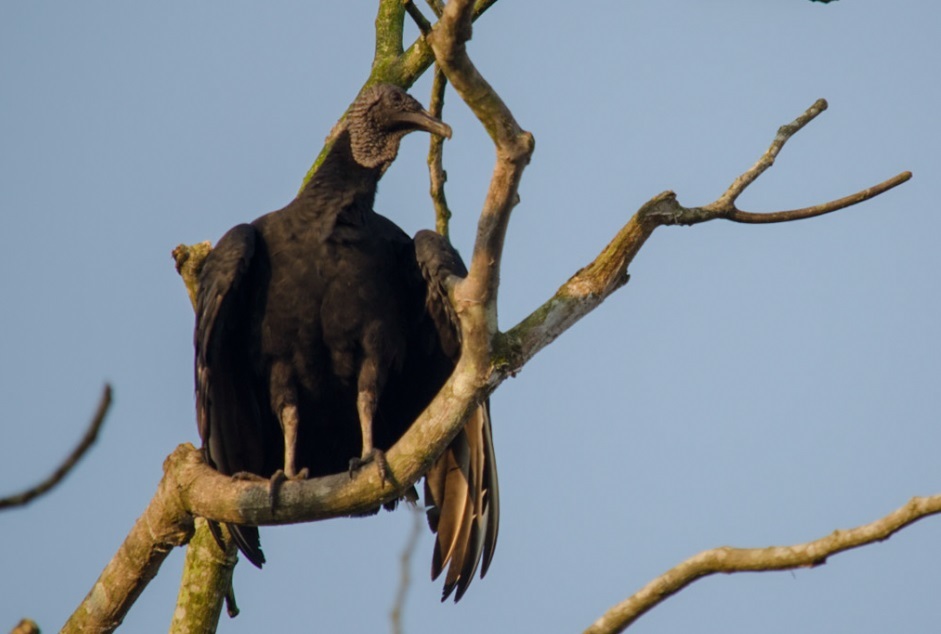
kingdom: Animalia
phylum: Chordata
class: Aves
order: Accipitriformes
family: Cathartidae
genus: Coragyps
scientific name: Coragyps atratus
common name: Black vulture
